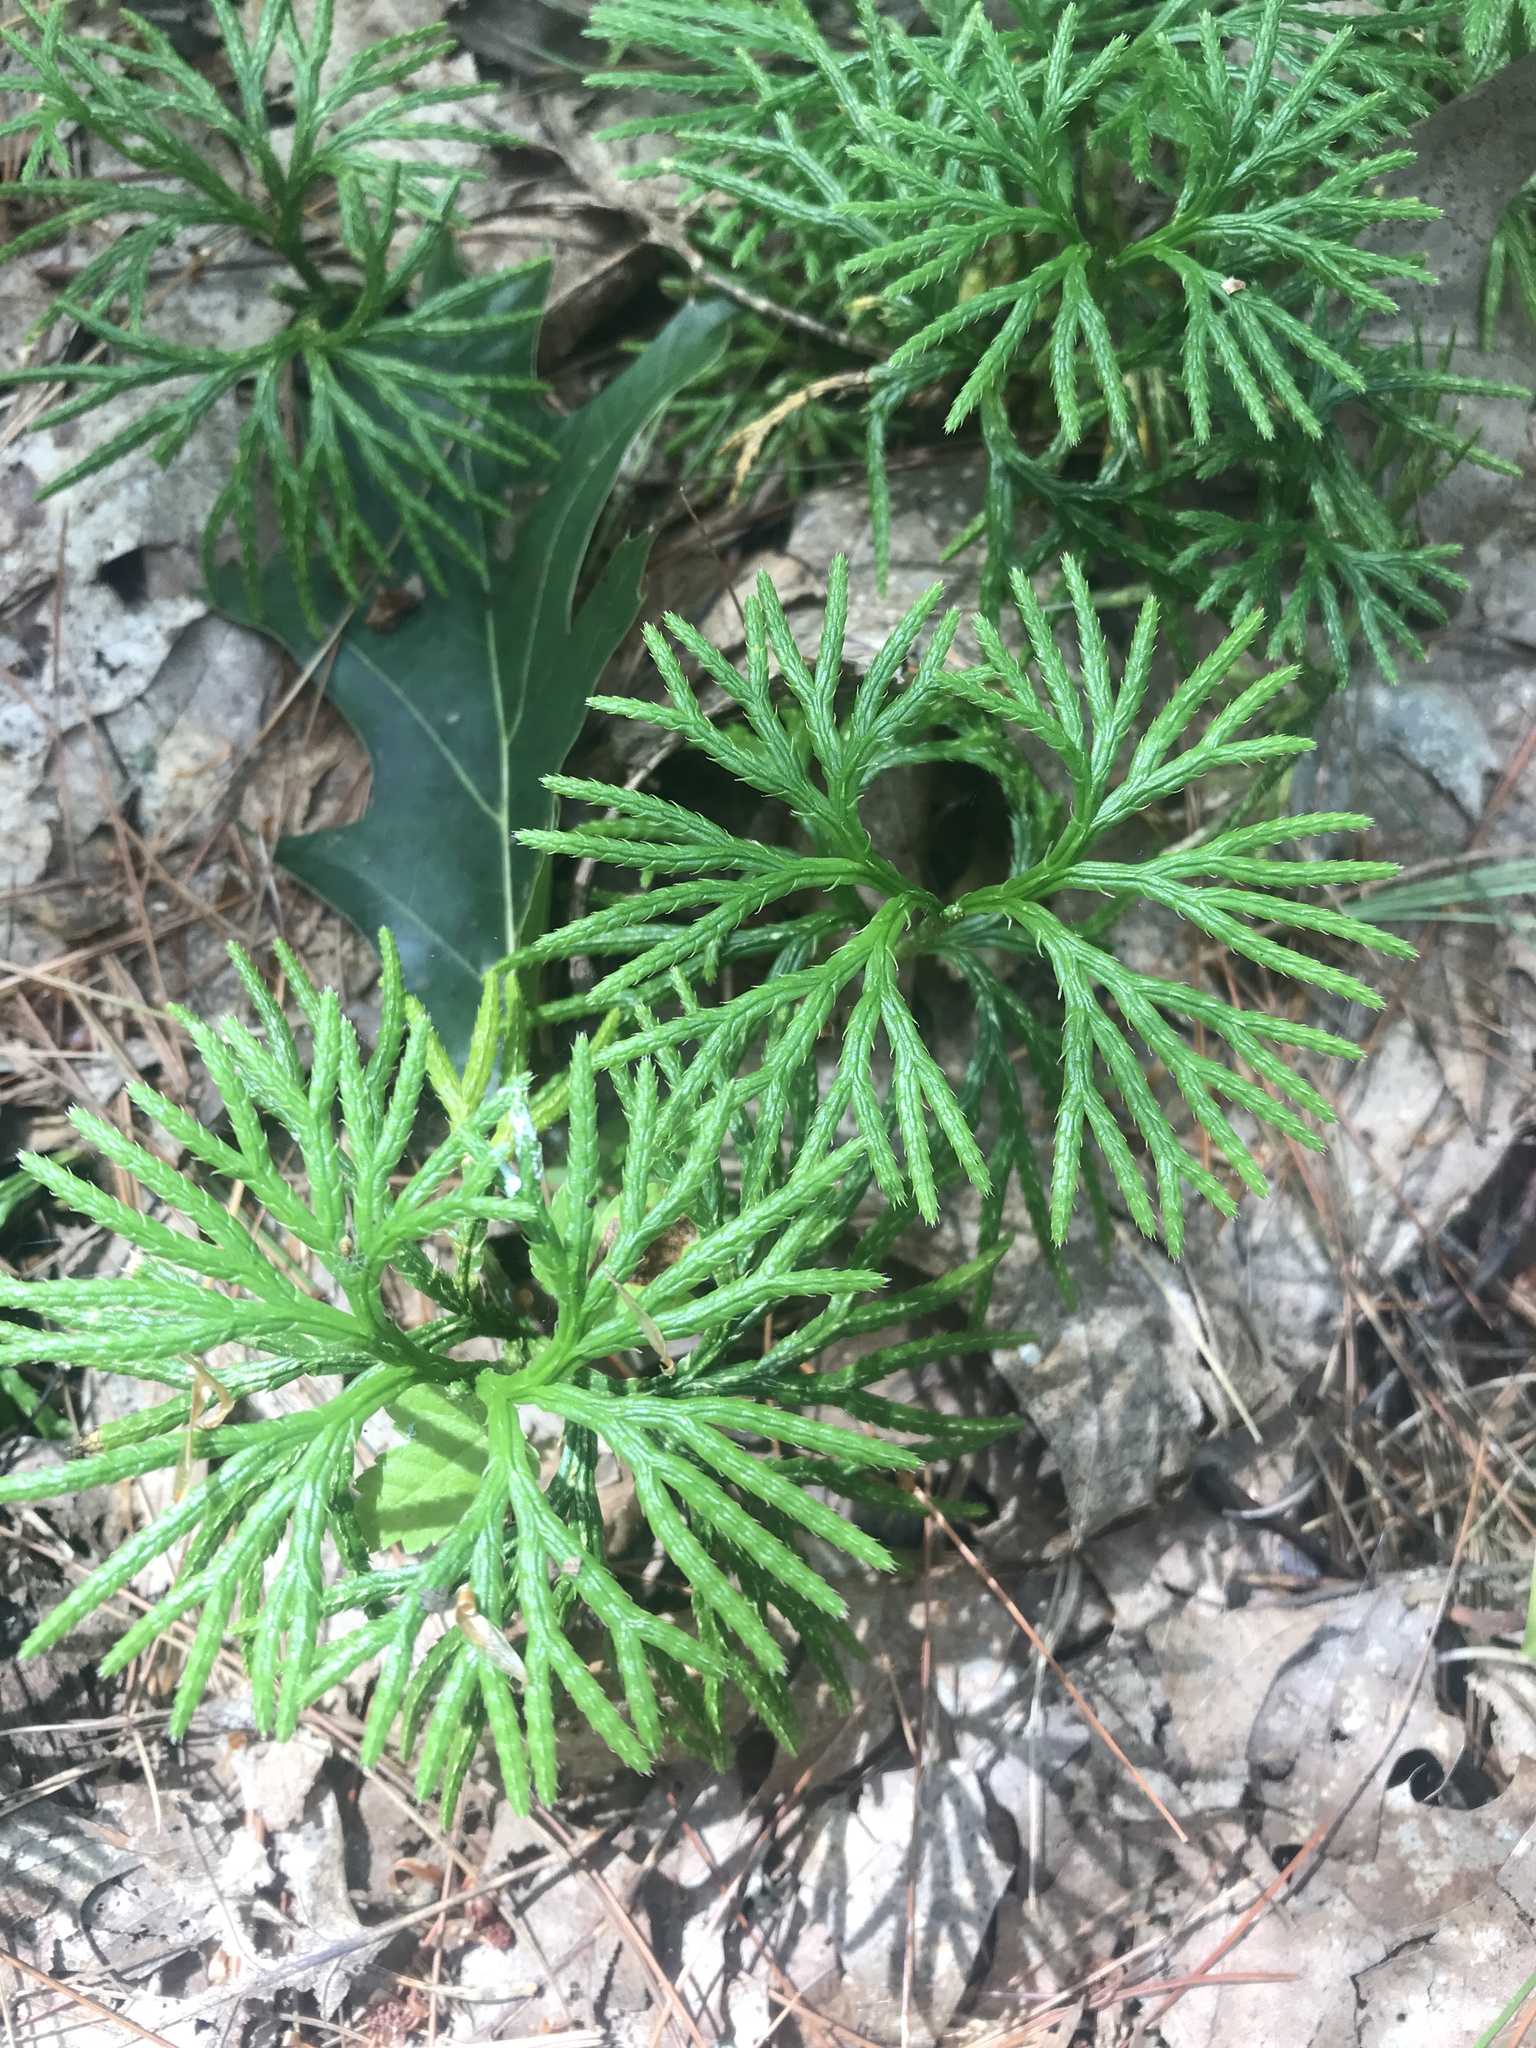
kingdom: Plantae
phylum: Tracheophyta
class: Lycopodiopsida
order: Lycopodiales
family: Lycopodiaceae
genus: Diphasiastrum
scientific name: Diphasiastrum digitatum
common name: Southern running-pine
